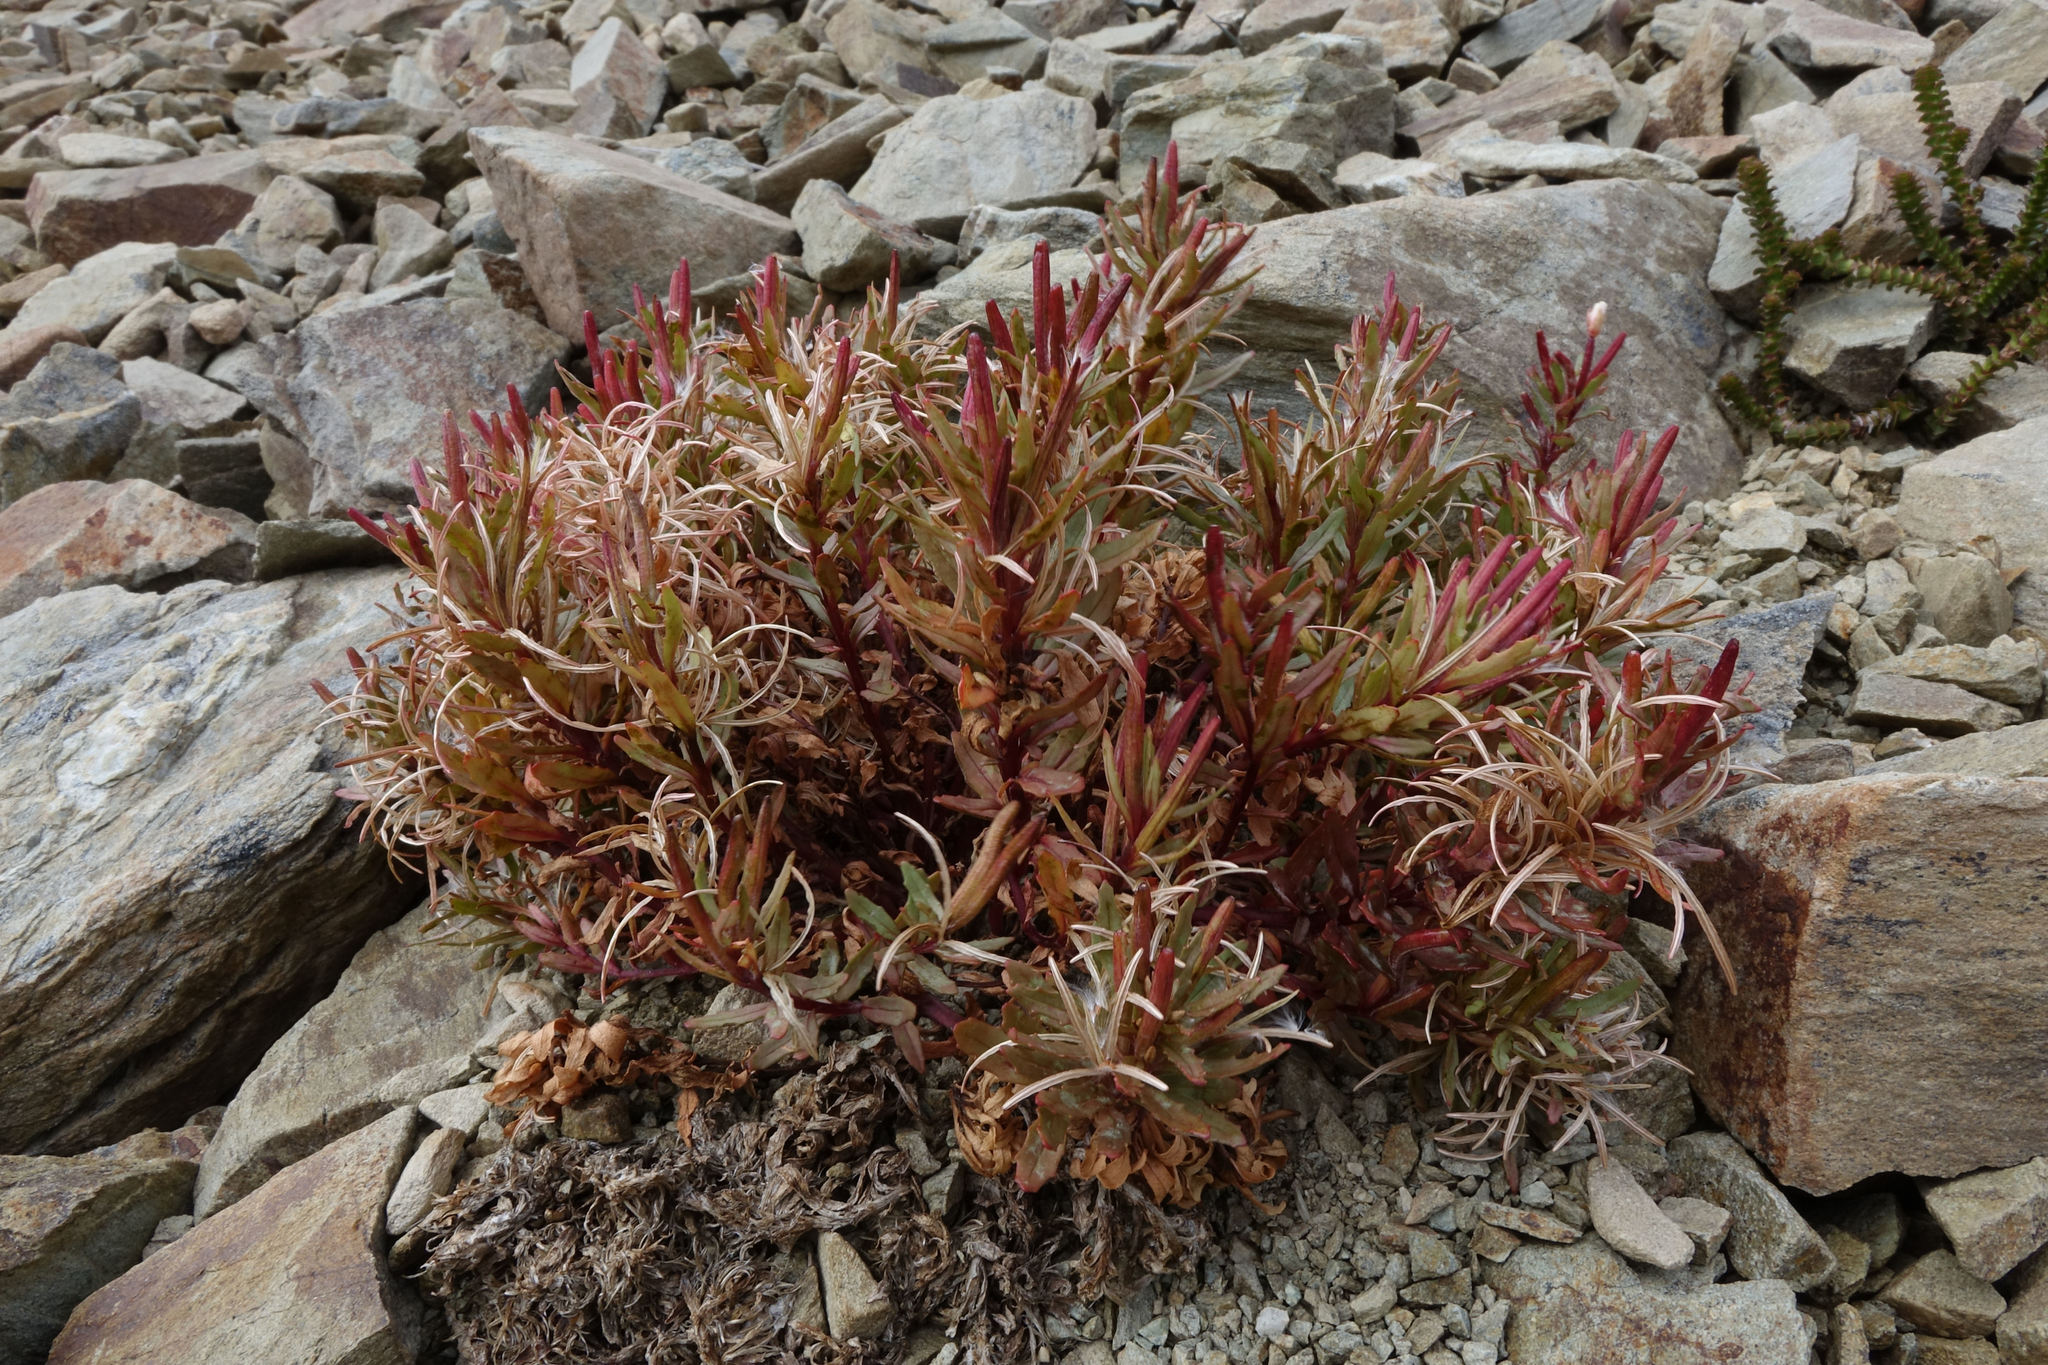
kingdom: Plantae
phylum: Tracheophyta
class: Magnoliopsida
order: Myrtales
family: Onagraceae
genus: Epilobium
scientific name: Epilobium pycnostachyum
